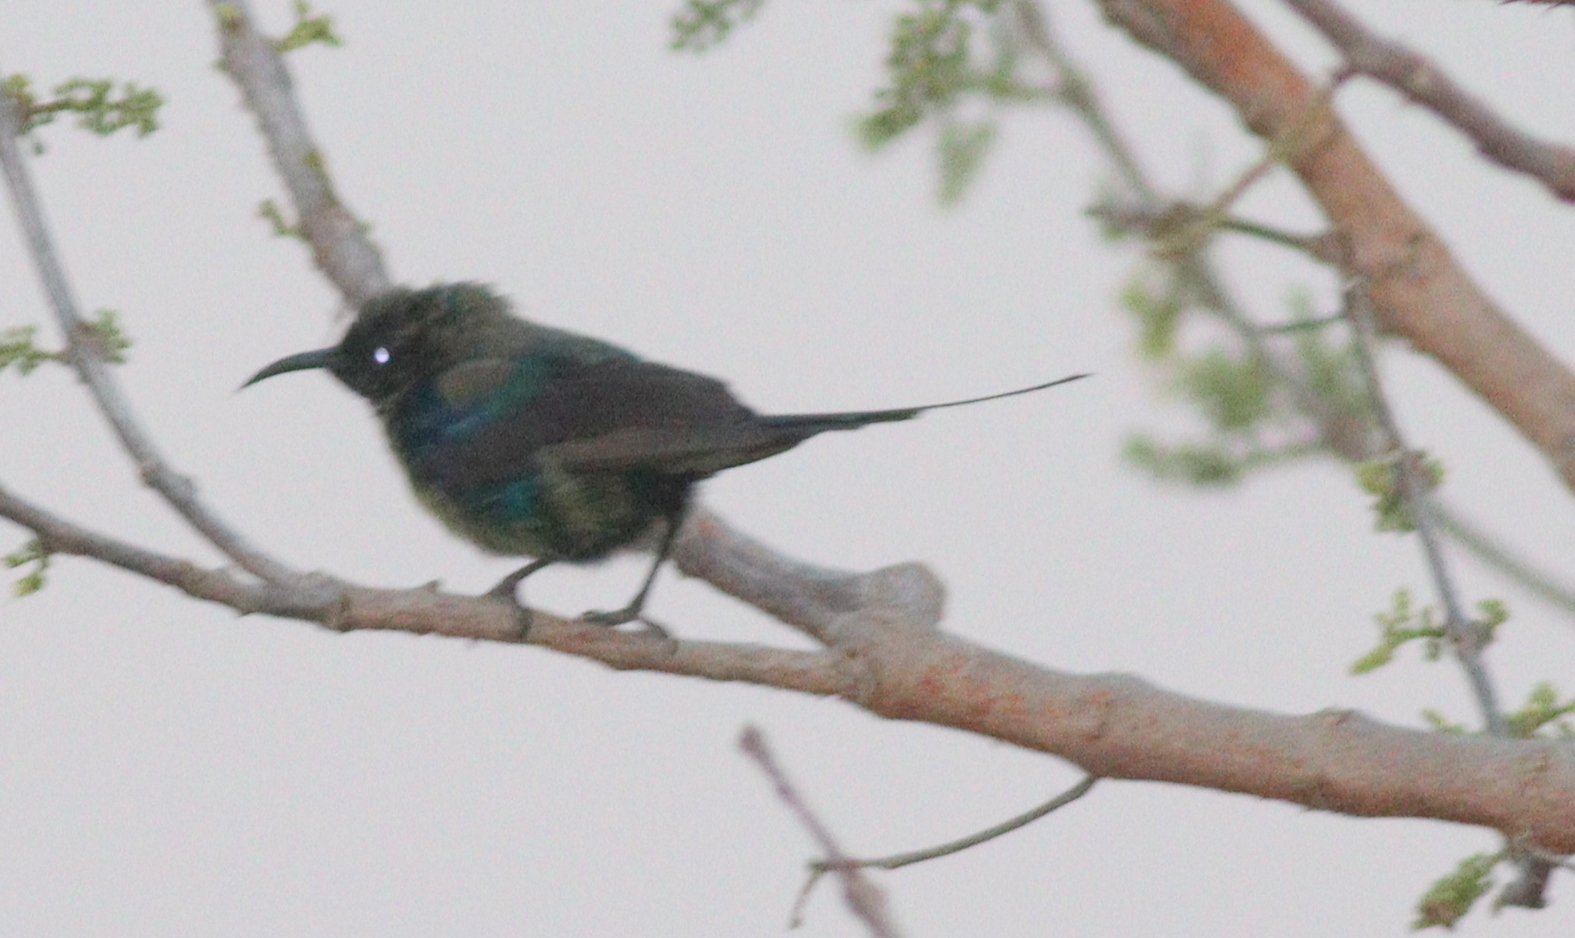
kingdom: Animalia
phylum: Chordata
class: Aves
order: Passeriformes
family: Nectariniidae
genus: Cinnyris
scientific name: Cinnyris pulchellus
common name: Beautiful sunbird
